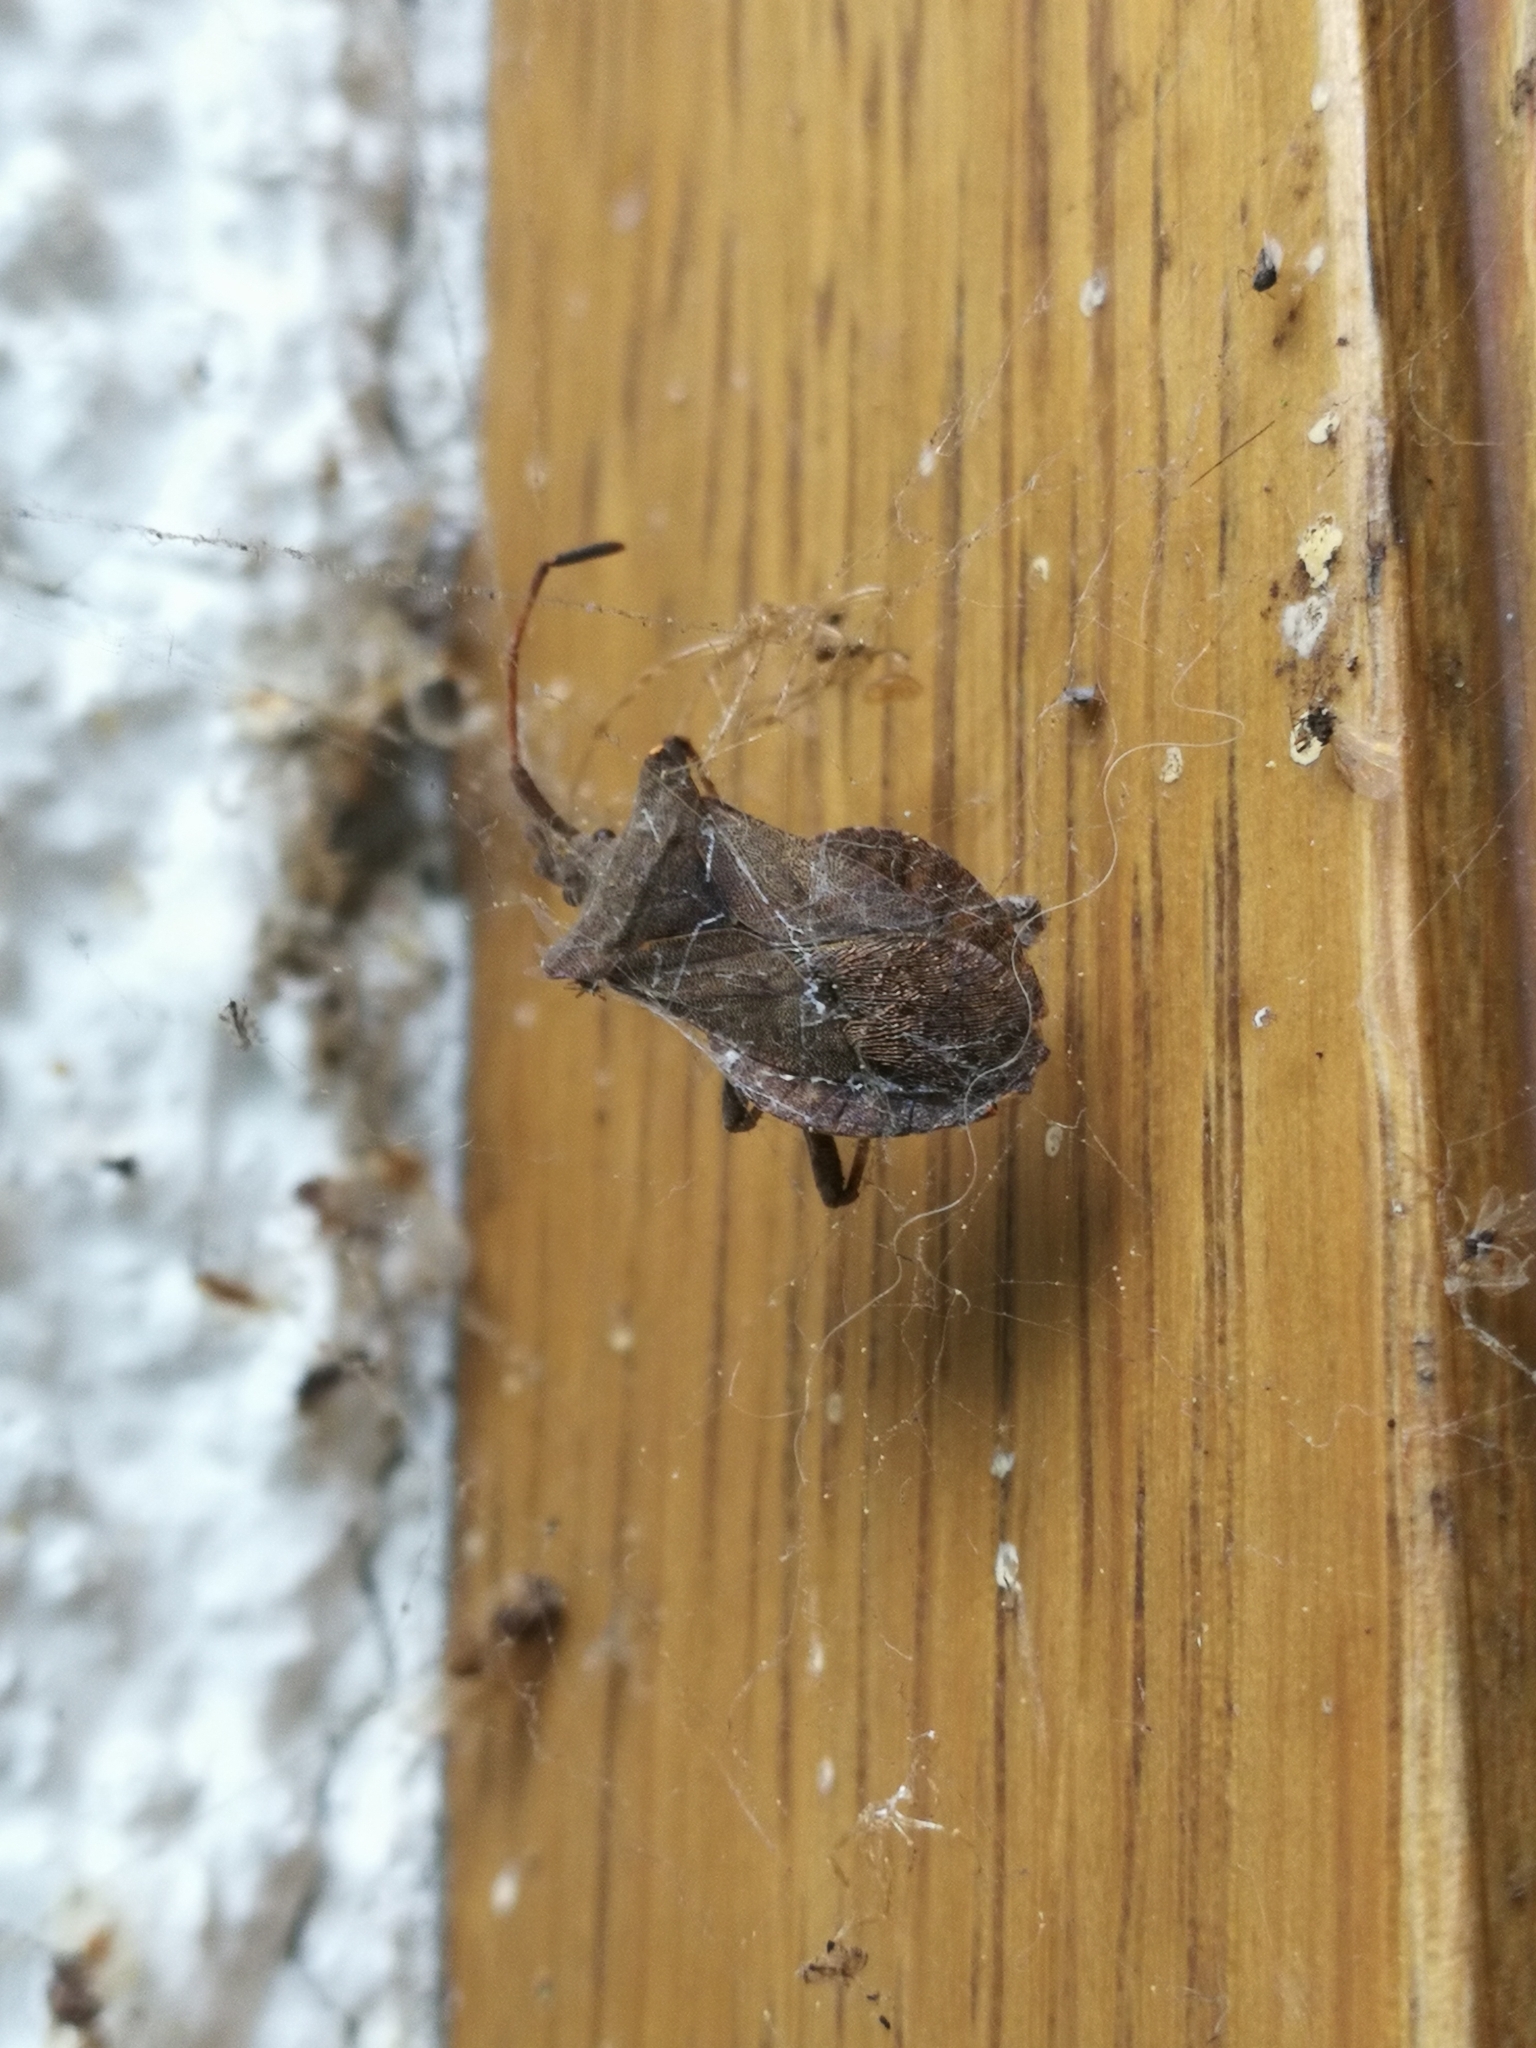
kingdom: Animalia
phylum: Arthropoda
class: Insecta
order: Hemiptera
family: Coreidae
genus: Coreus
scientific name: Coreus marginatus
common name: Dock bug
